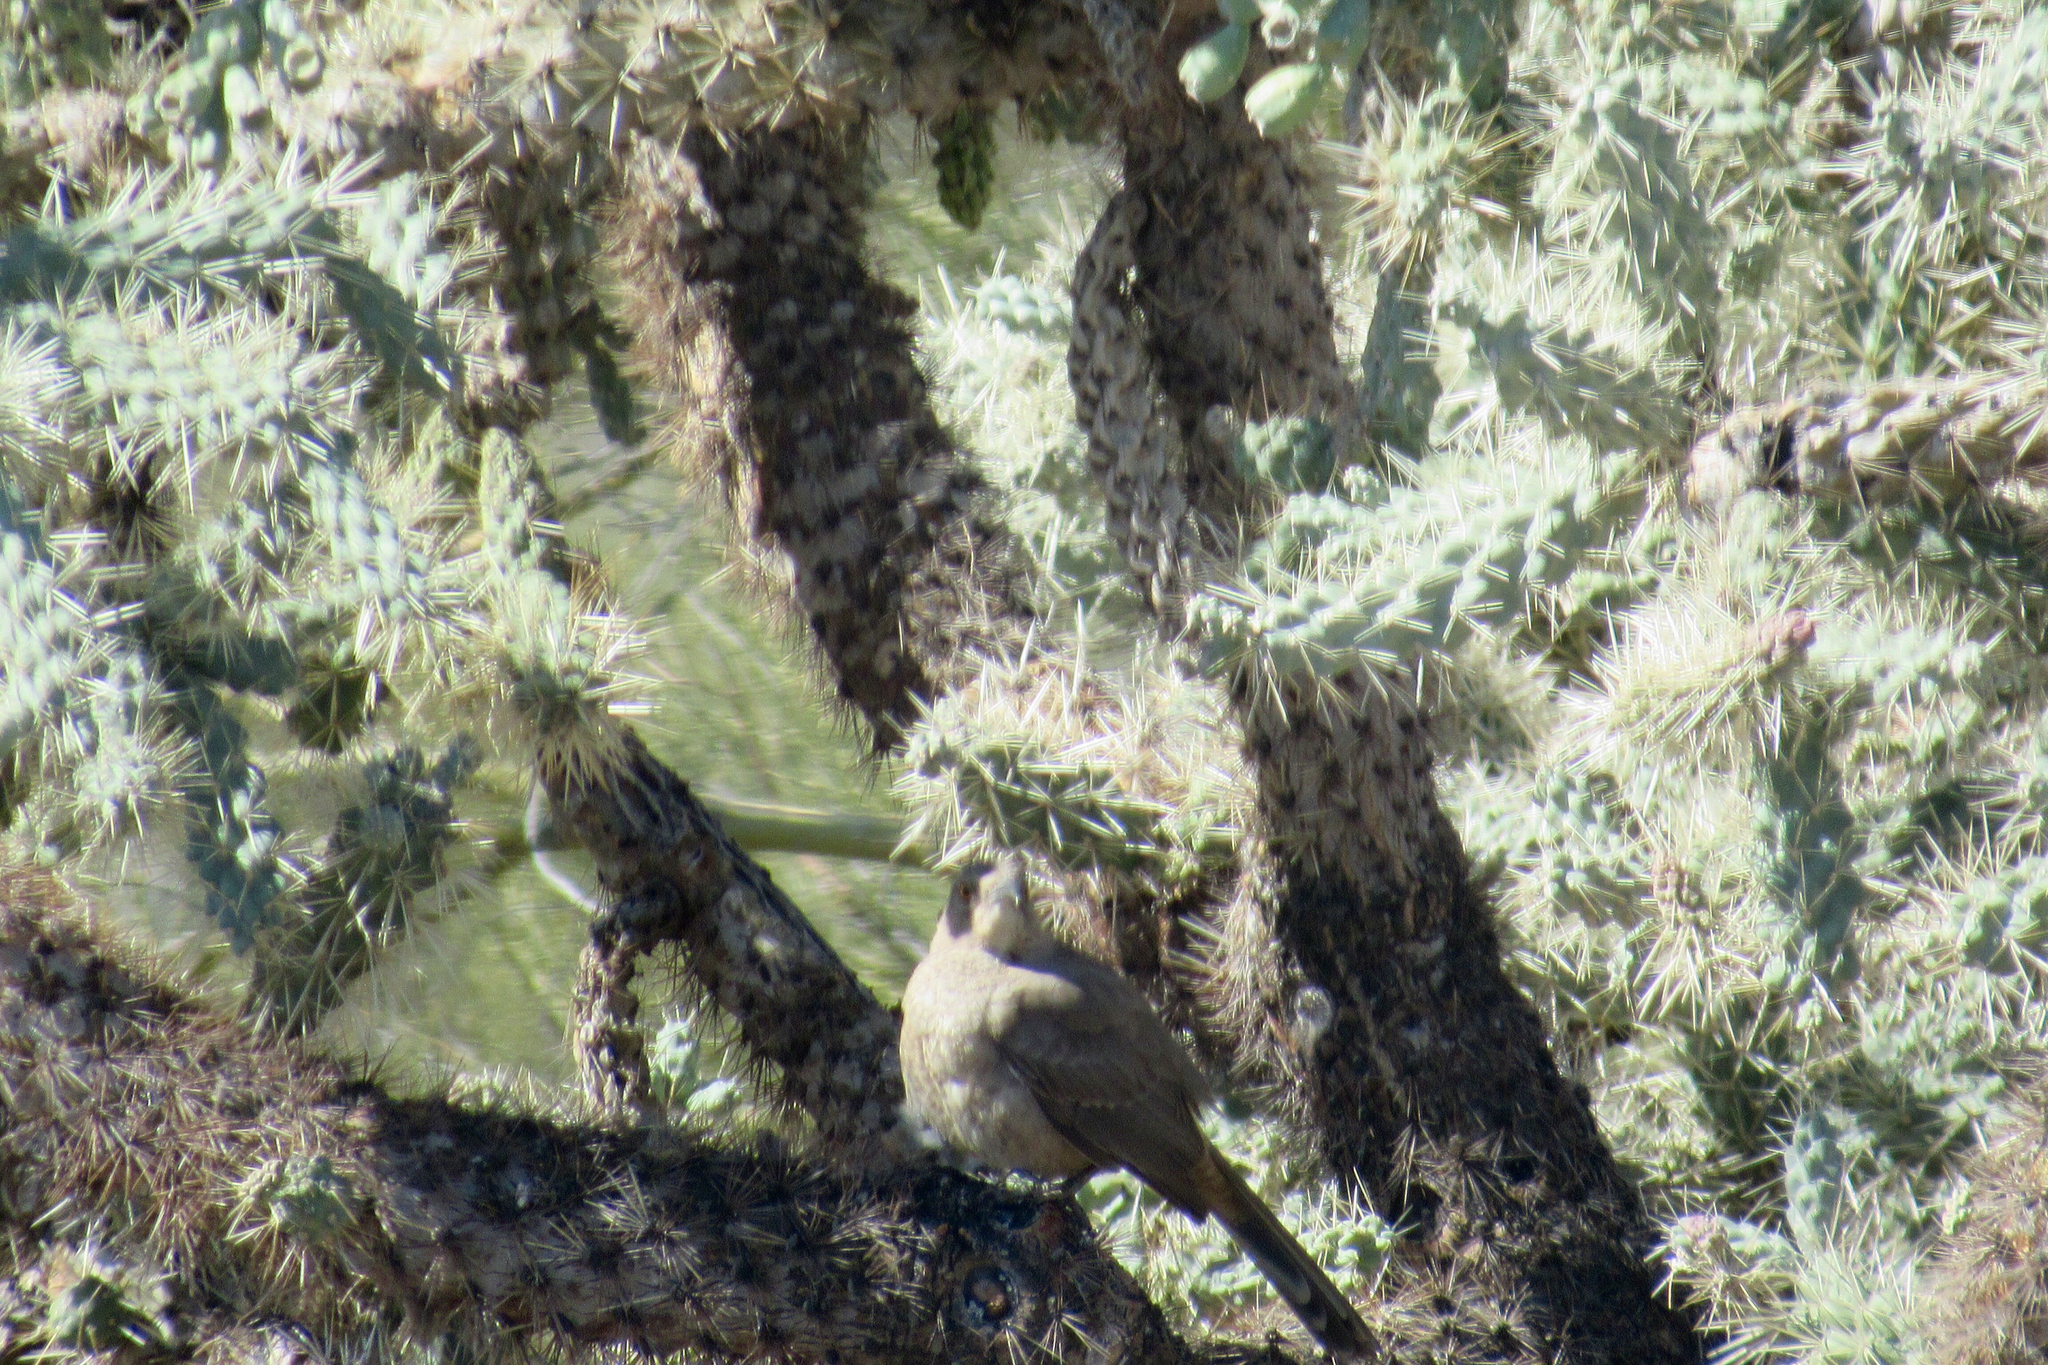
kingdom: Animalia
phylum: Chordata
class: Aves
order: Passeriformes
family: Mimidae
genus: Toxostoma
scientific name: Toxostoma curvirostre
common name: Curve-billed thrasher
